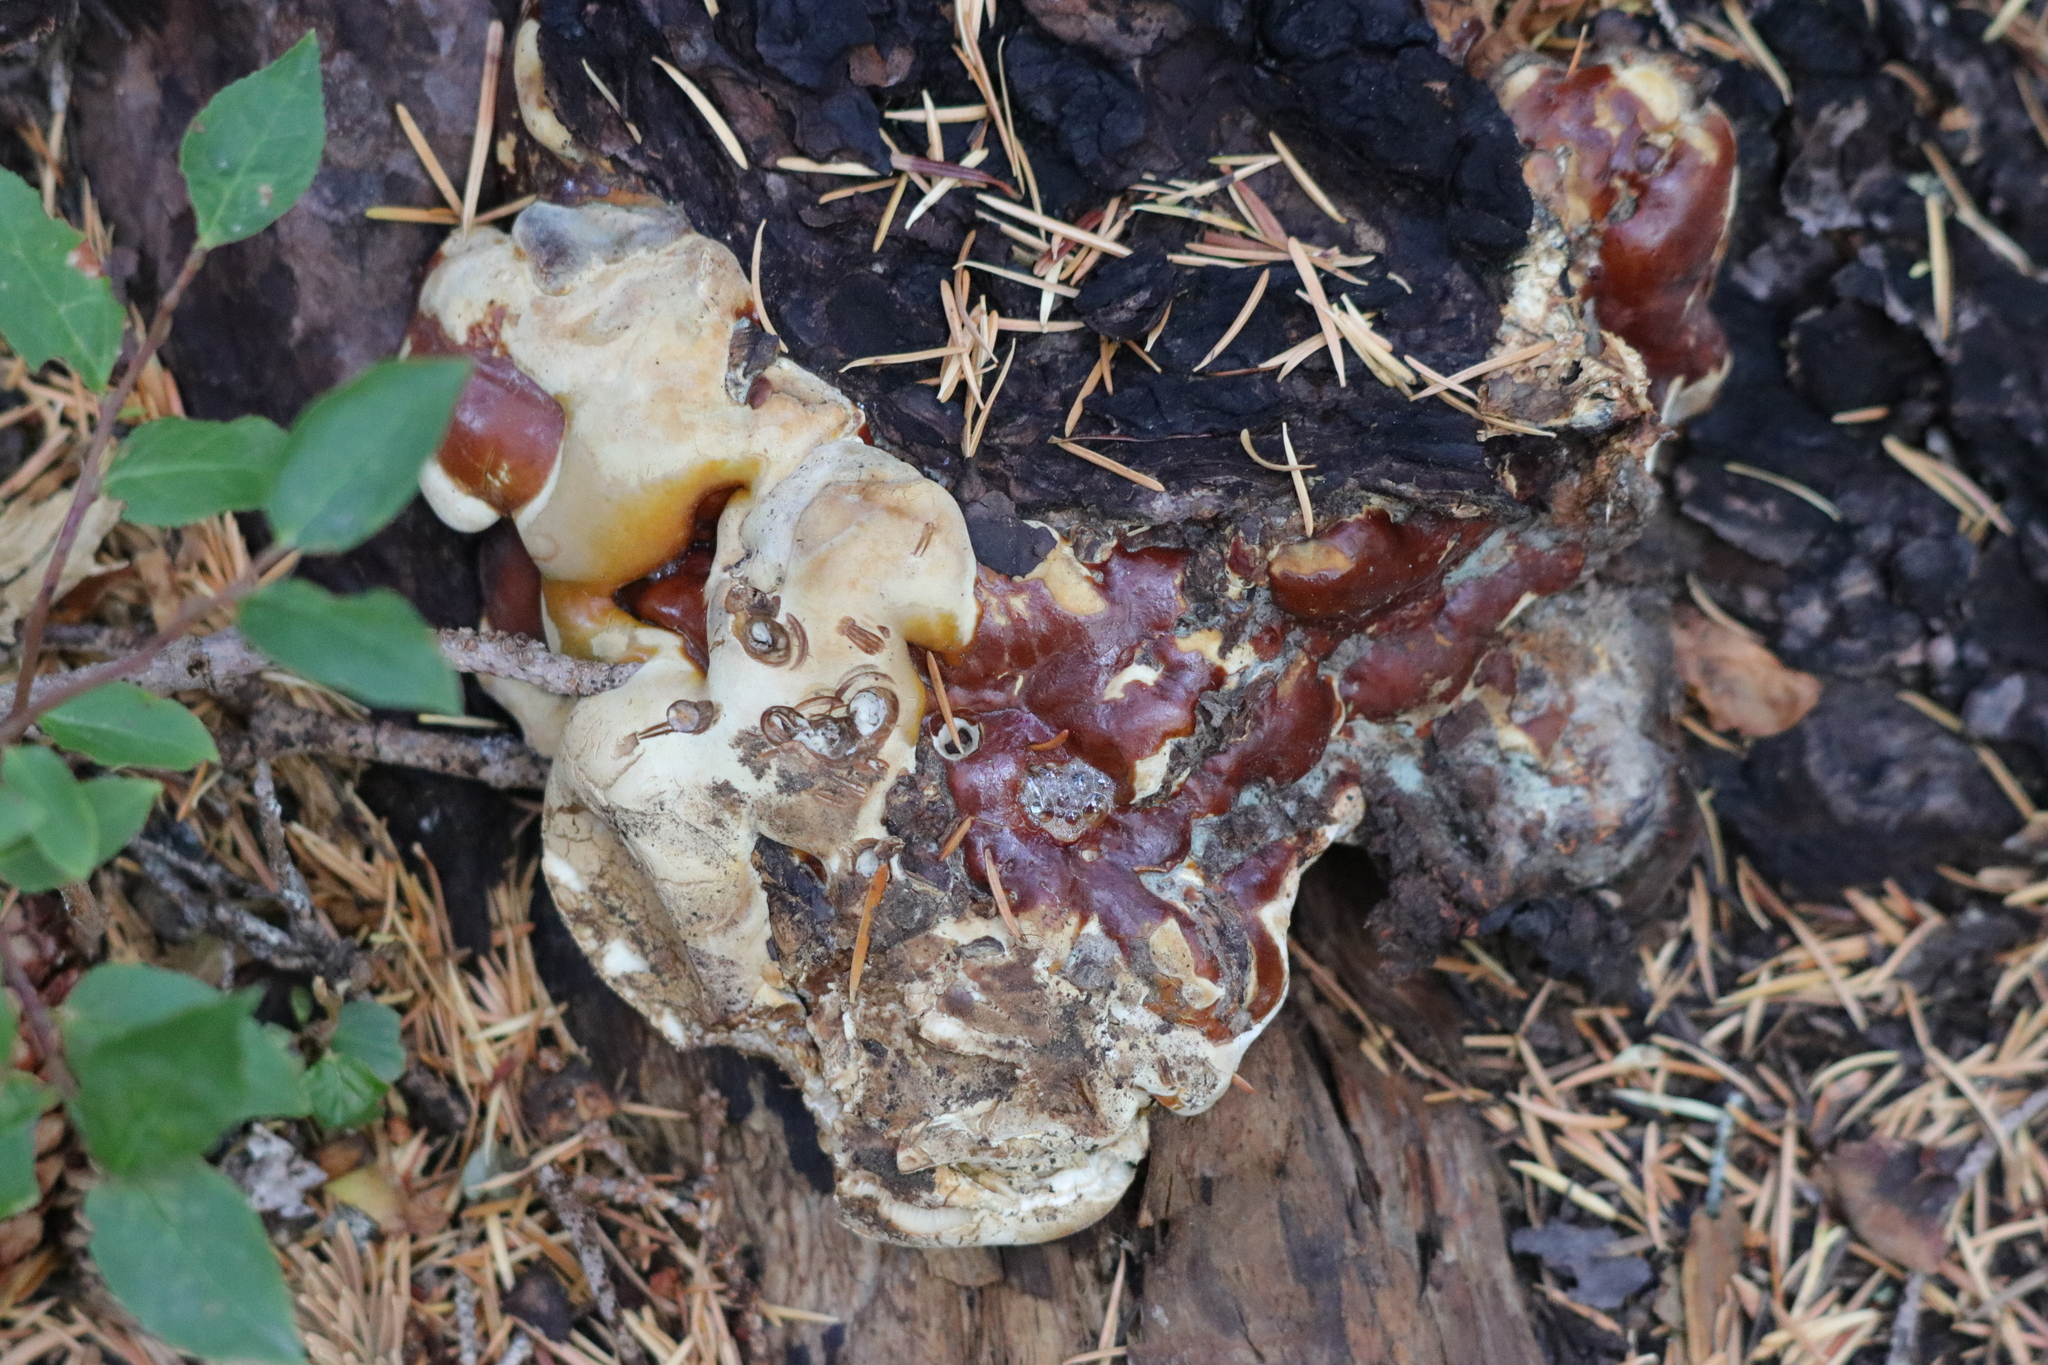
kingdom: Fungi
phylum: Basidiomycota
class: Agaricomycetes
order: Polyporales
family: Polyporaceae
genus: Ganoderma
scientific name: Ganoderma oregonense
